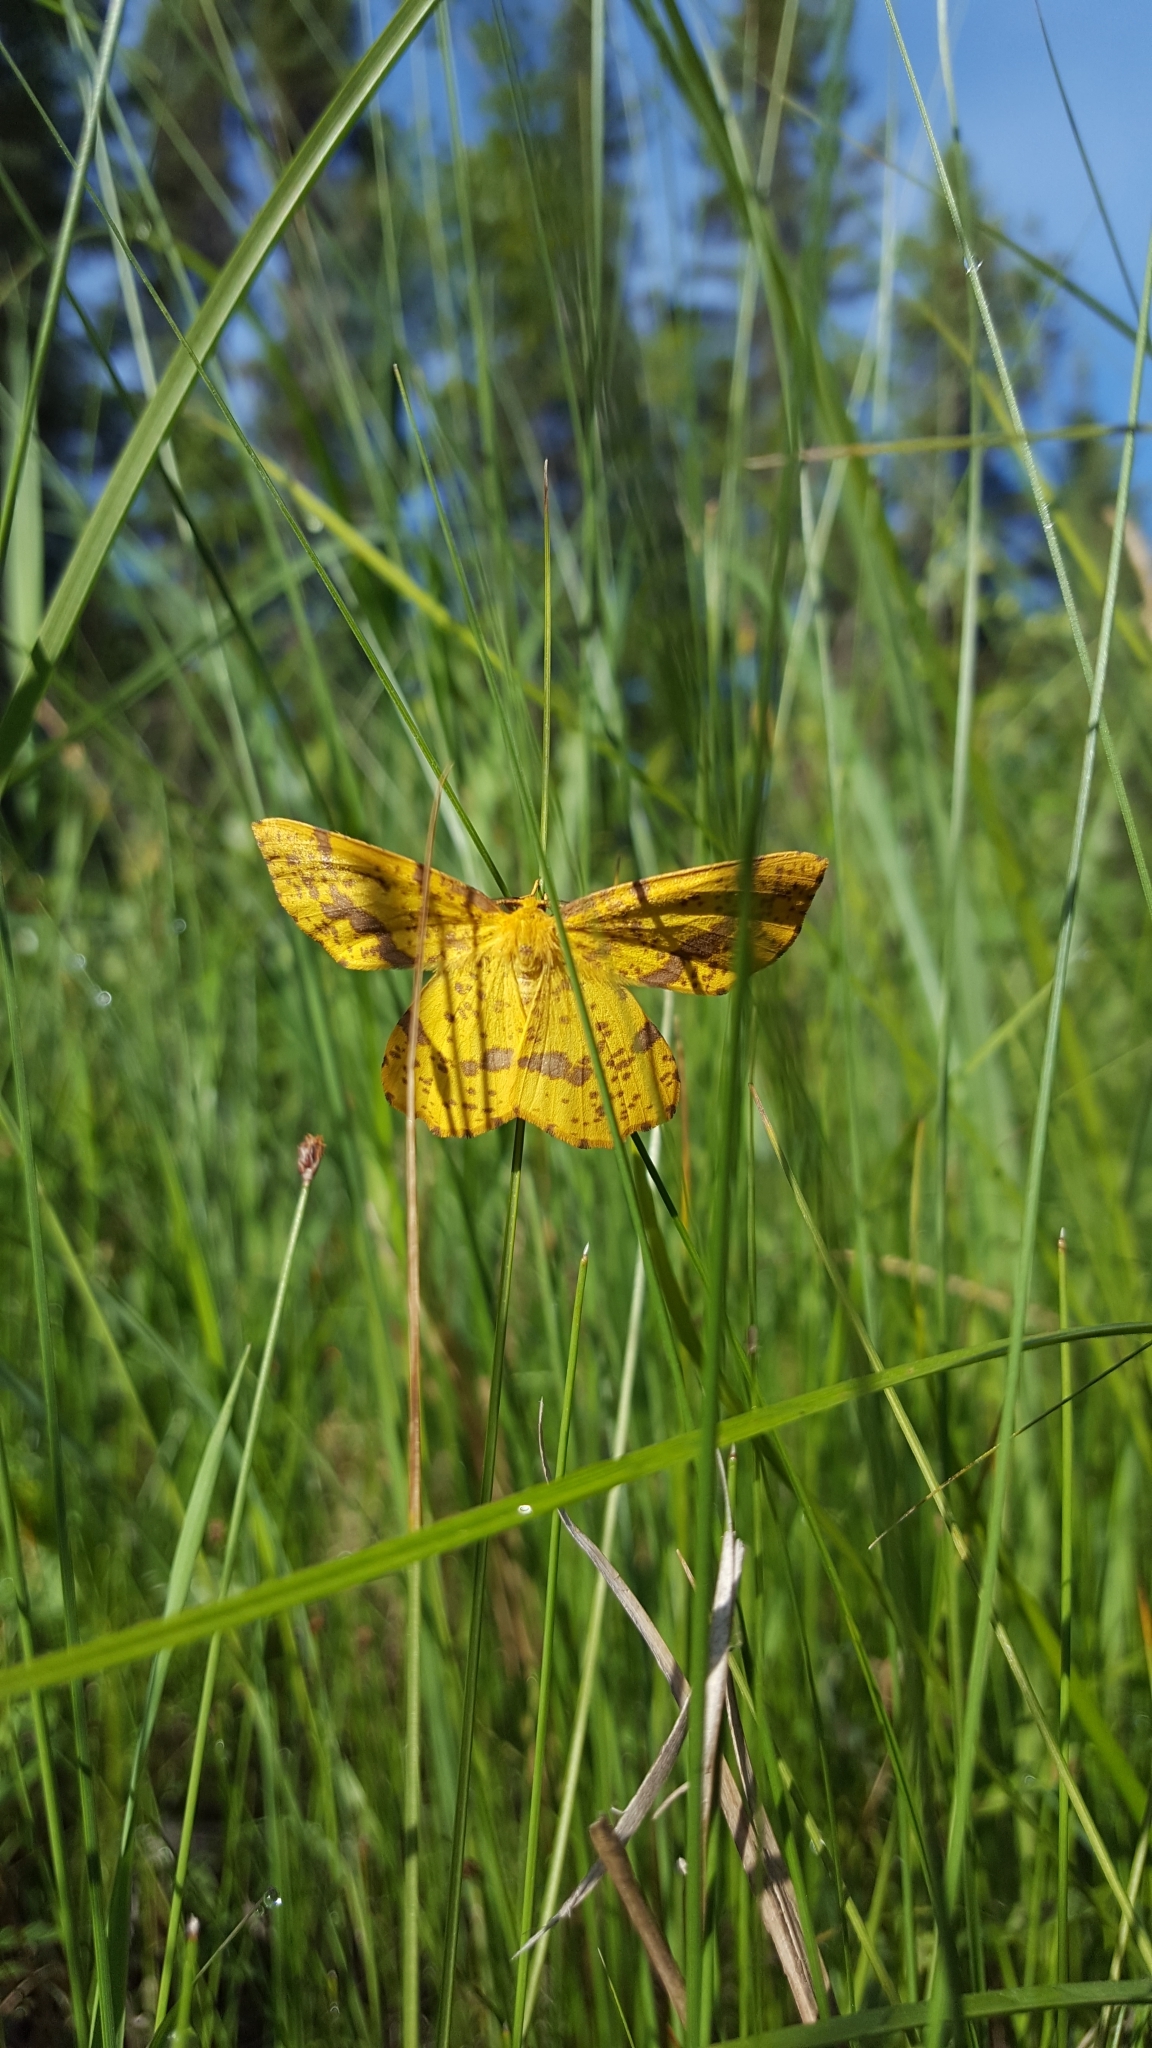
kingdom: Animalia
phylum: Arthropoda
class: Insecta
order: Lepidoptera
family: Geometridae
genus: Xanthotype
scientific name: Xanthotype
